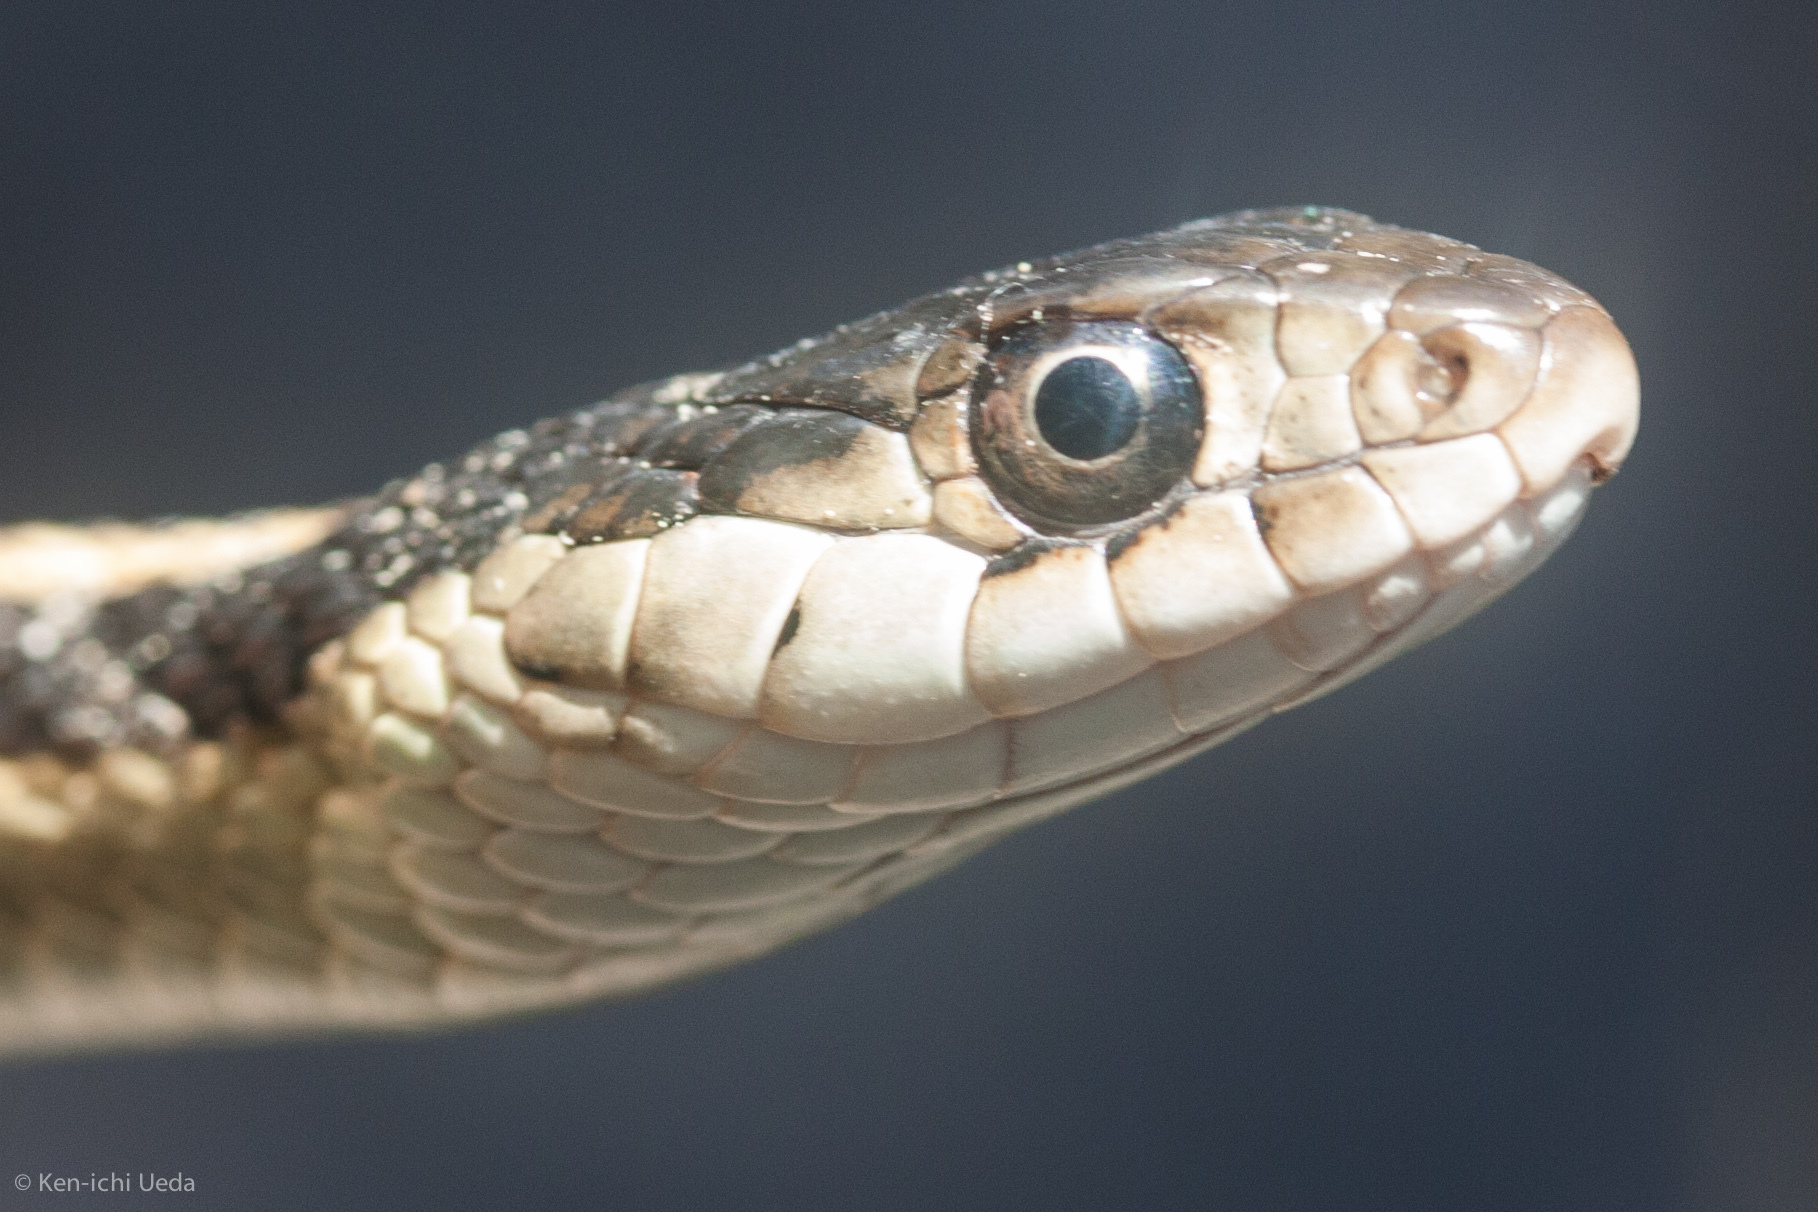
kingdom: Animalia
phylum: Chordata
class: Squamata
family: Colubridae
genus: Thamnophis
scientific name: Thamnophis sirtalis
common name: Common garter snake
